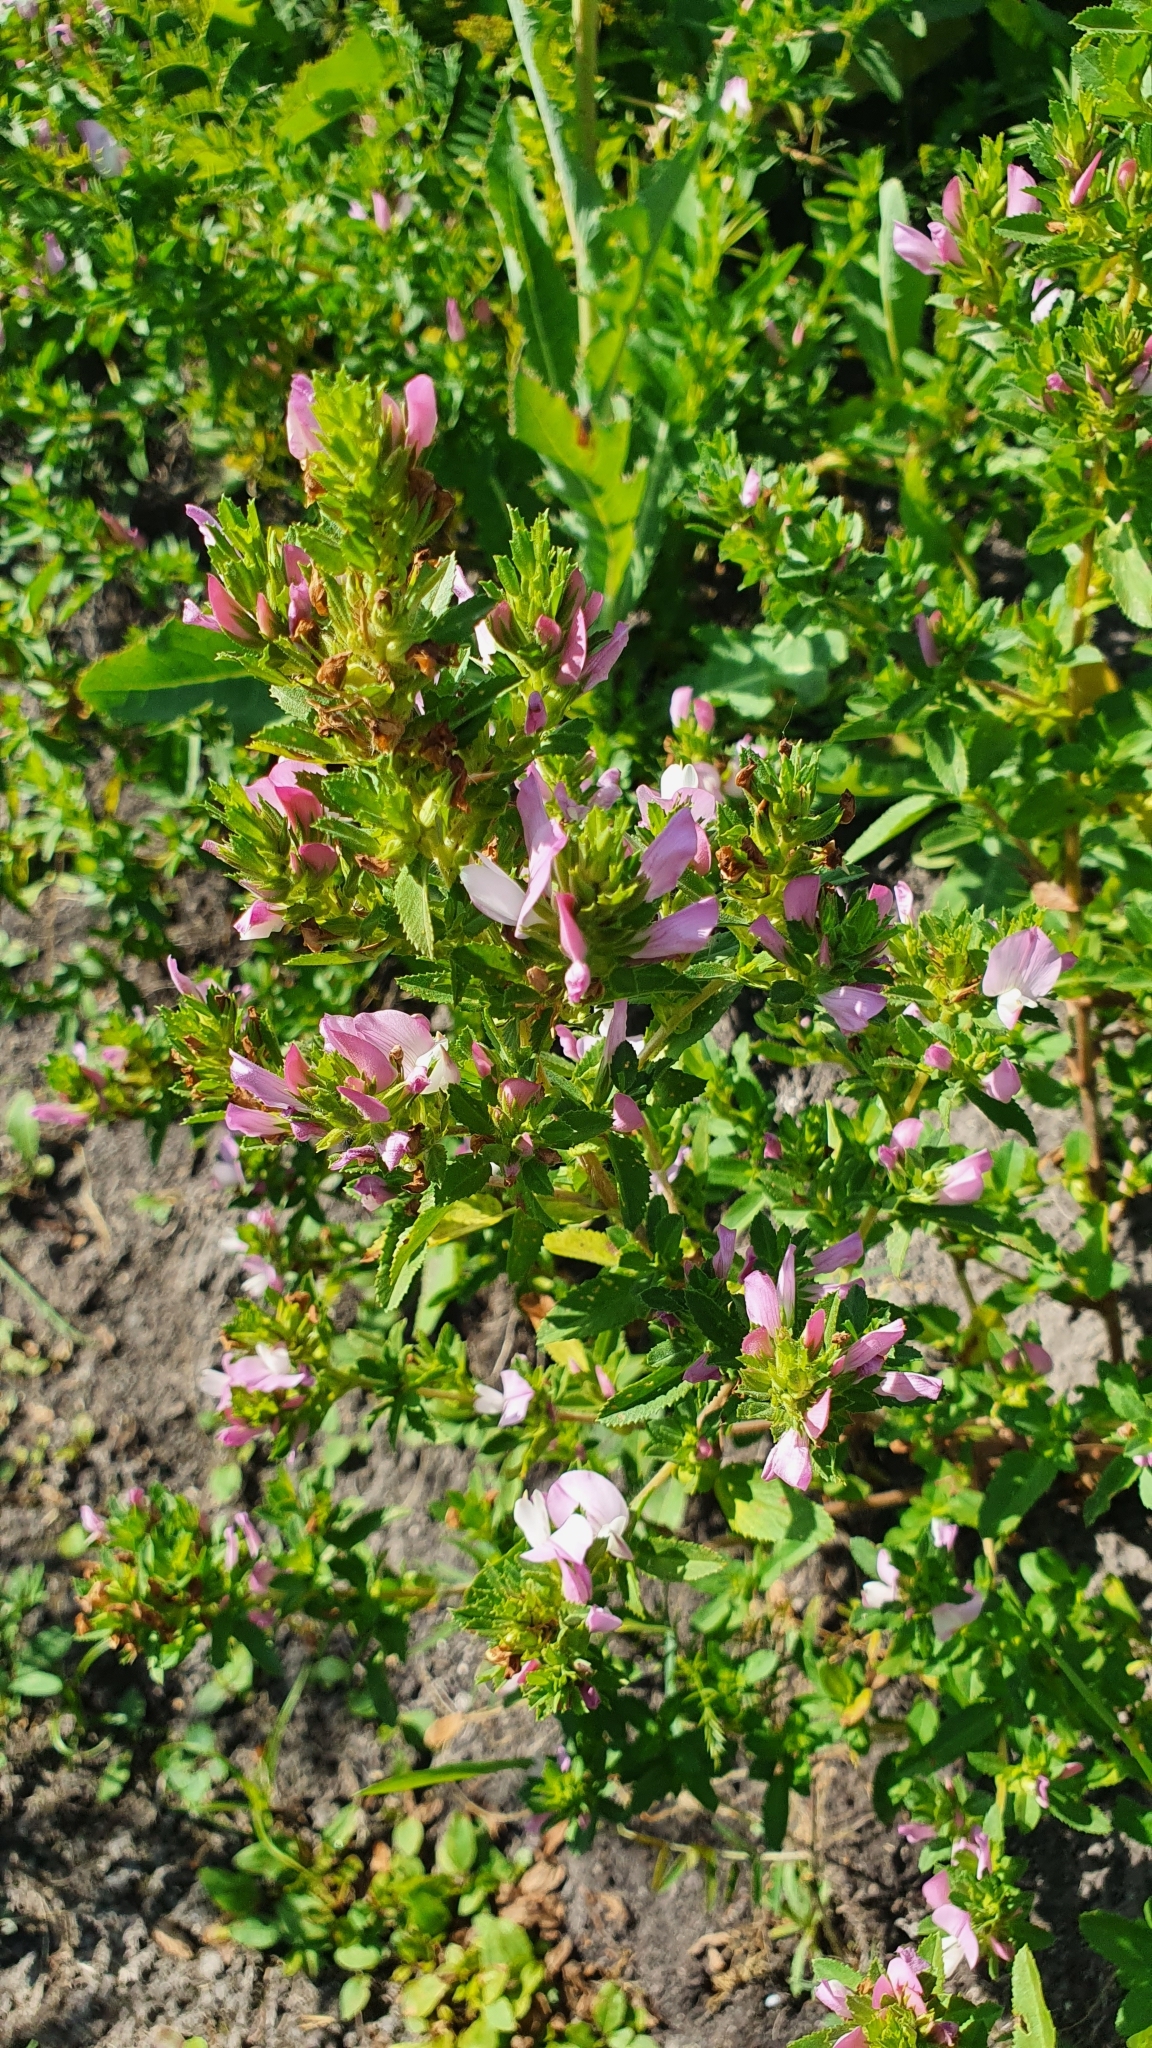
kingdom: Plantae
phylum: Tracheophyta
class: Magnoliopsida
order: Fabales
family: Fabaceae
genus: Ononis
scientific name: Ononis arvensis
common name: Field restharrow
